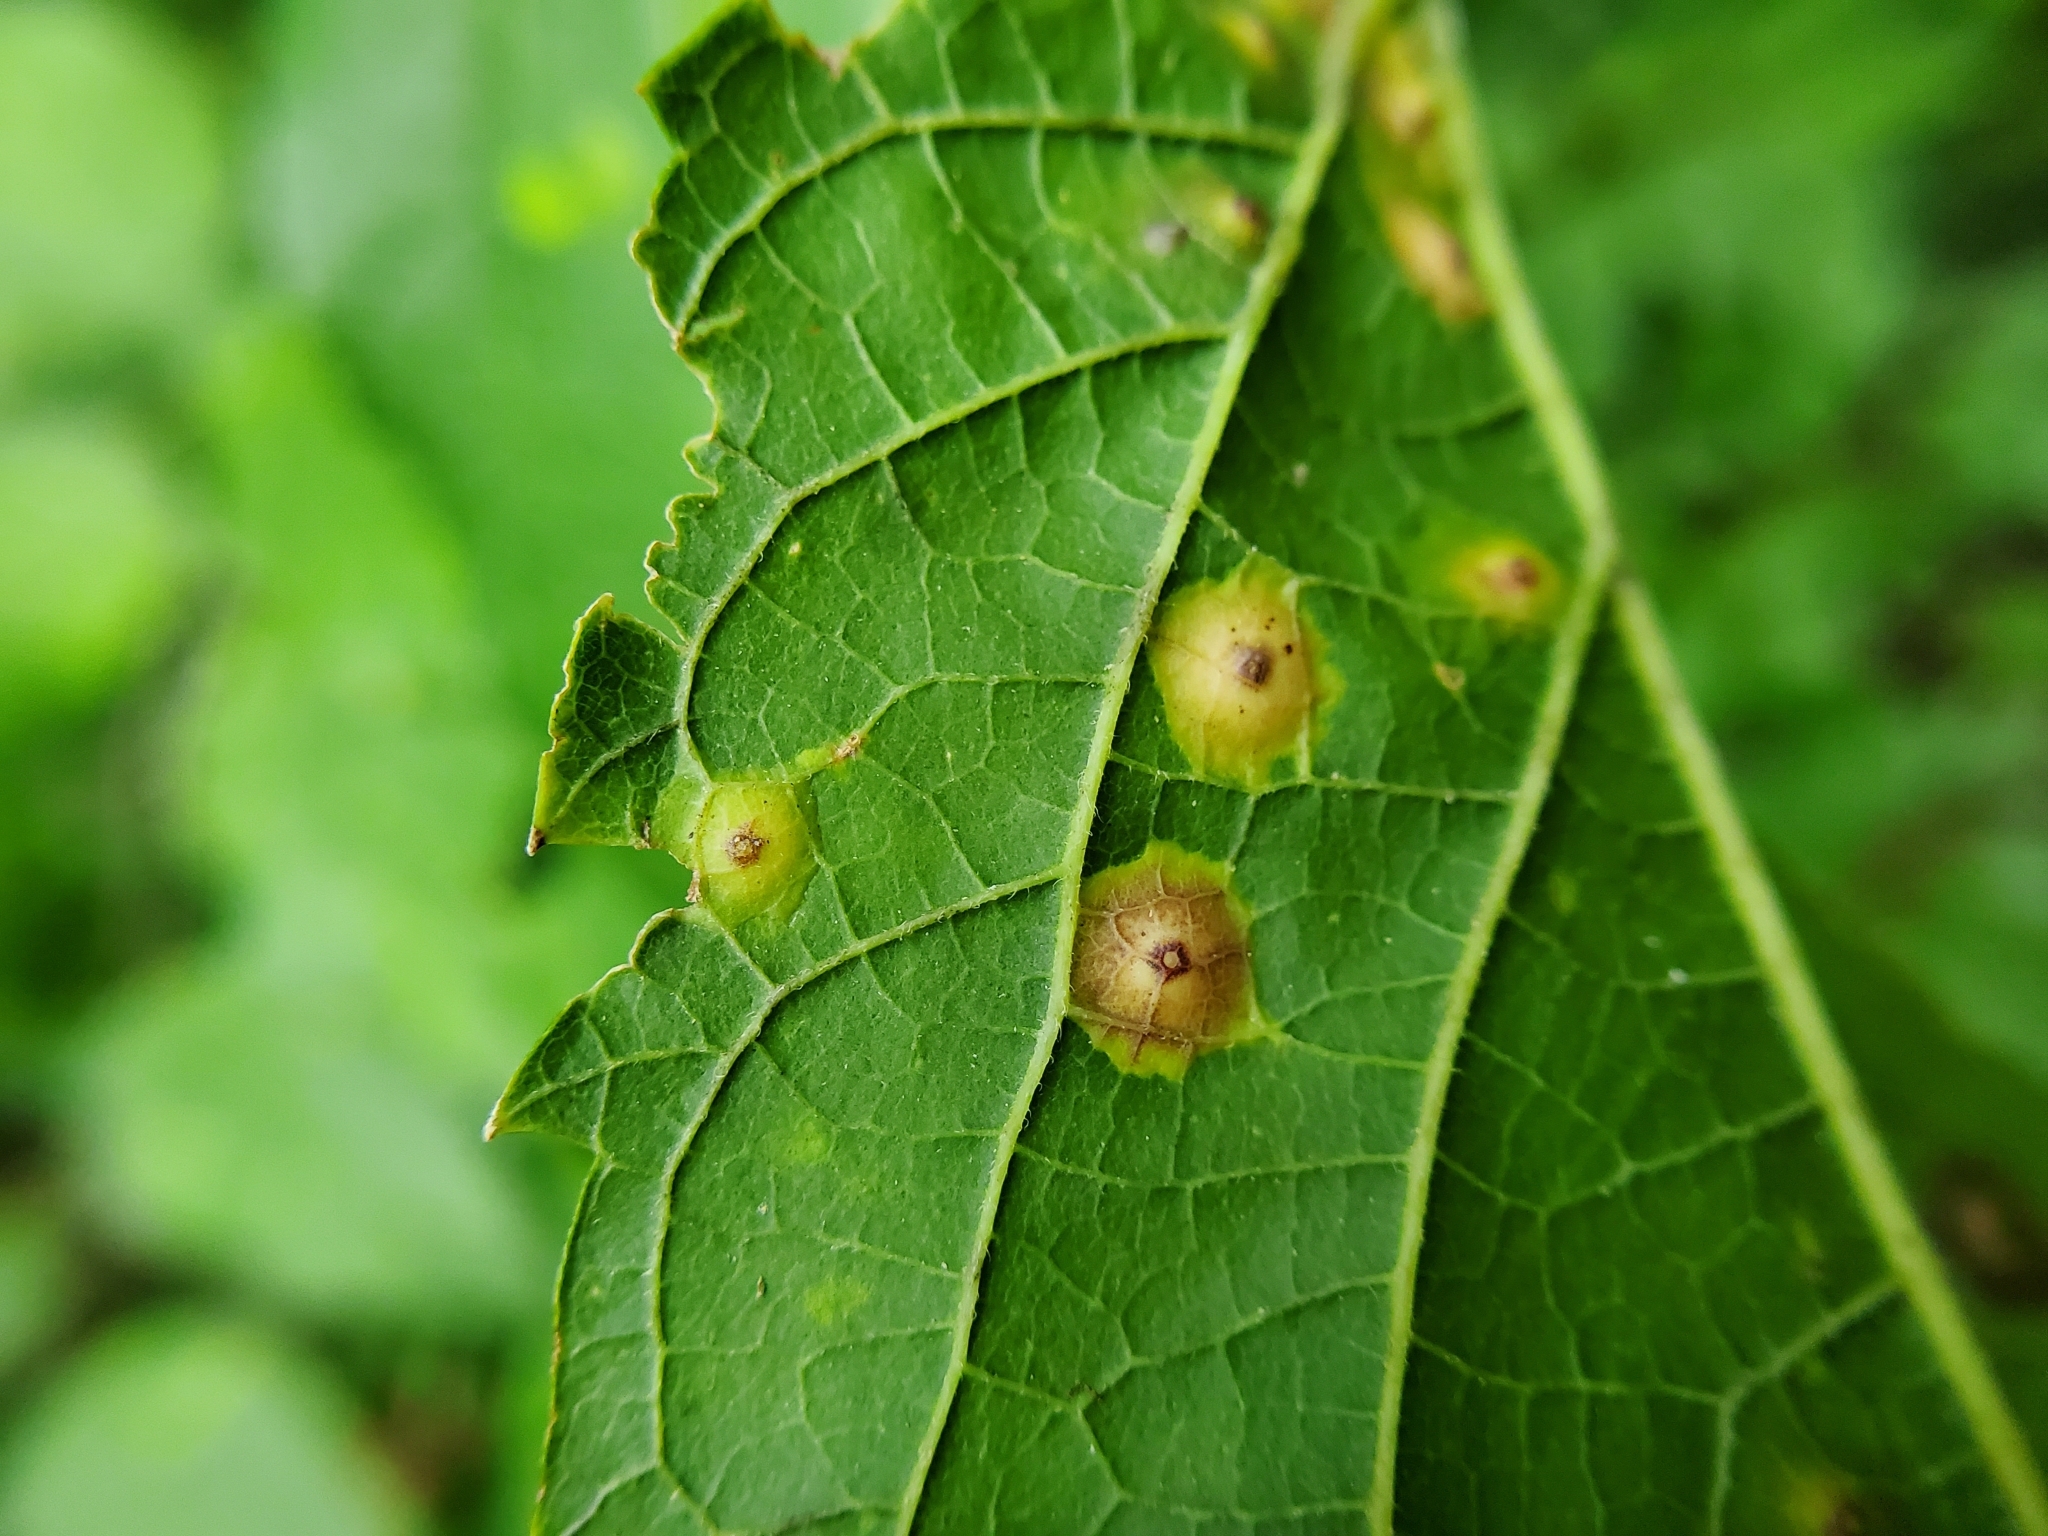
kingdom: Animalia
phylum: Arthropoda
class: Insecta
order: Hemiptera
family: Aphalaridae
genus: Pachypsylla
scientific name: Pachypsylla celtidisvesicula
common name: Hackberry blister gall psyllid
